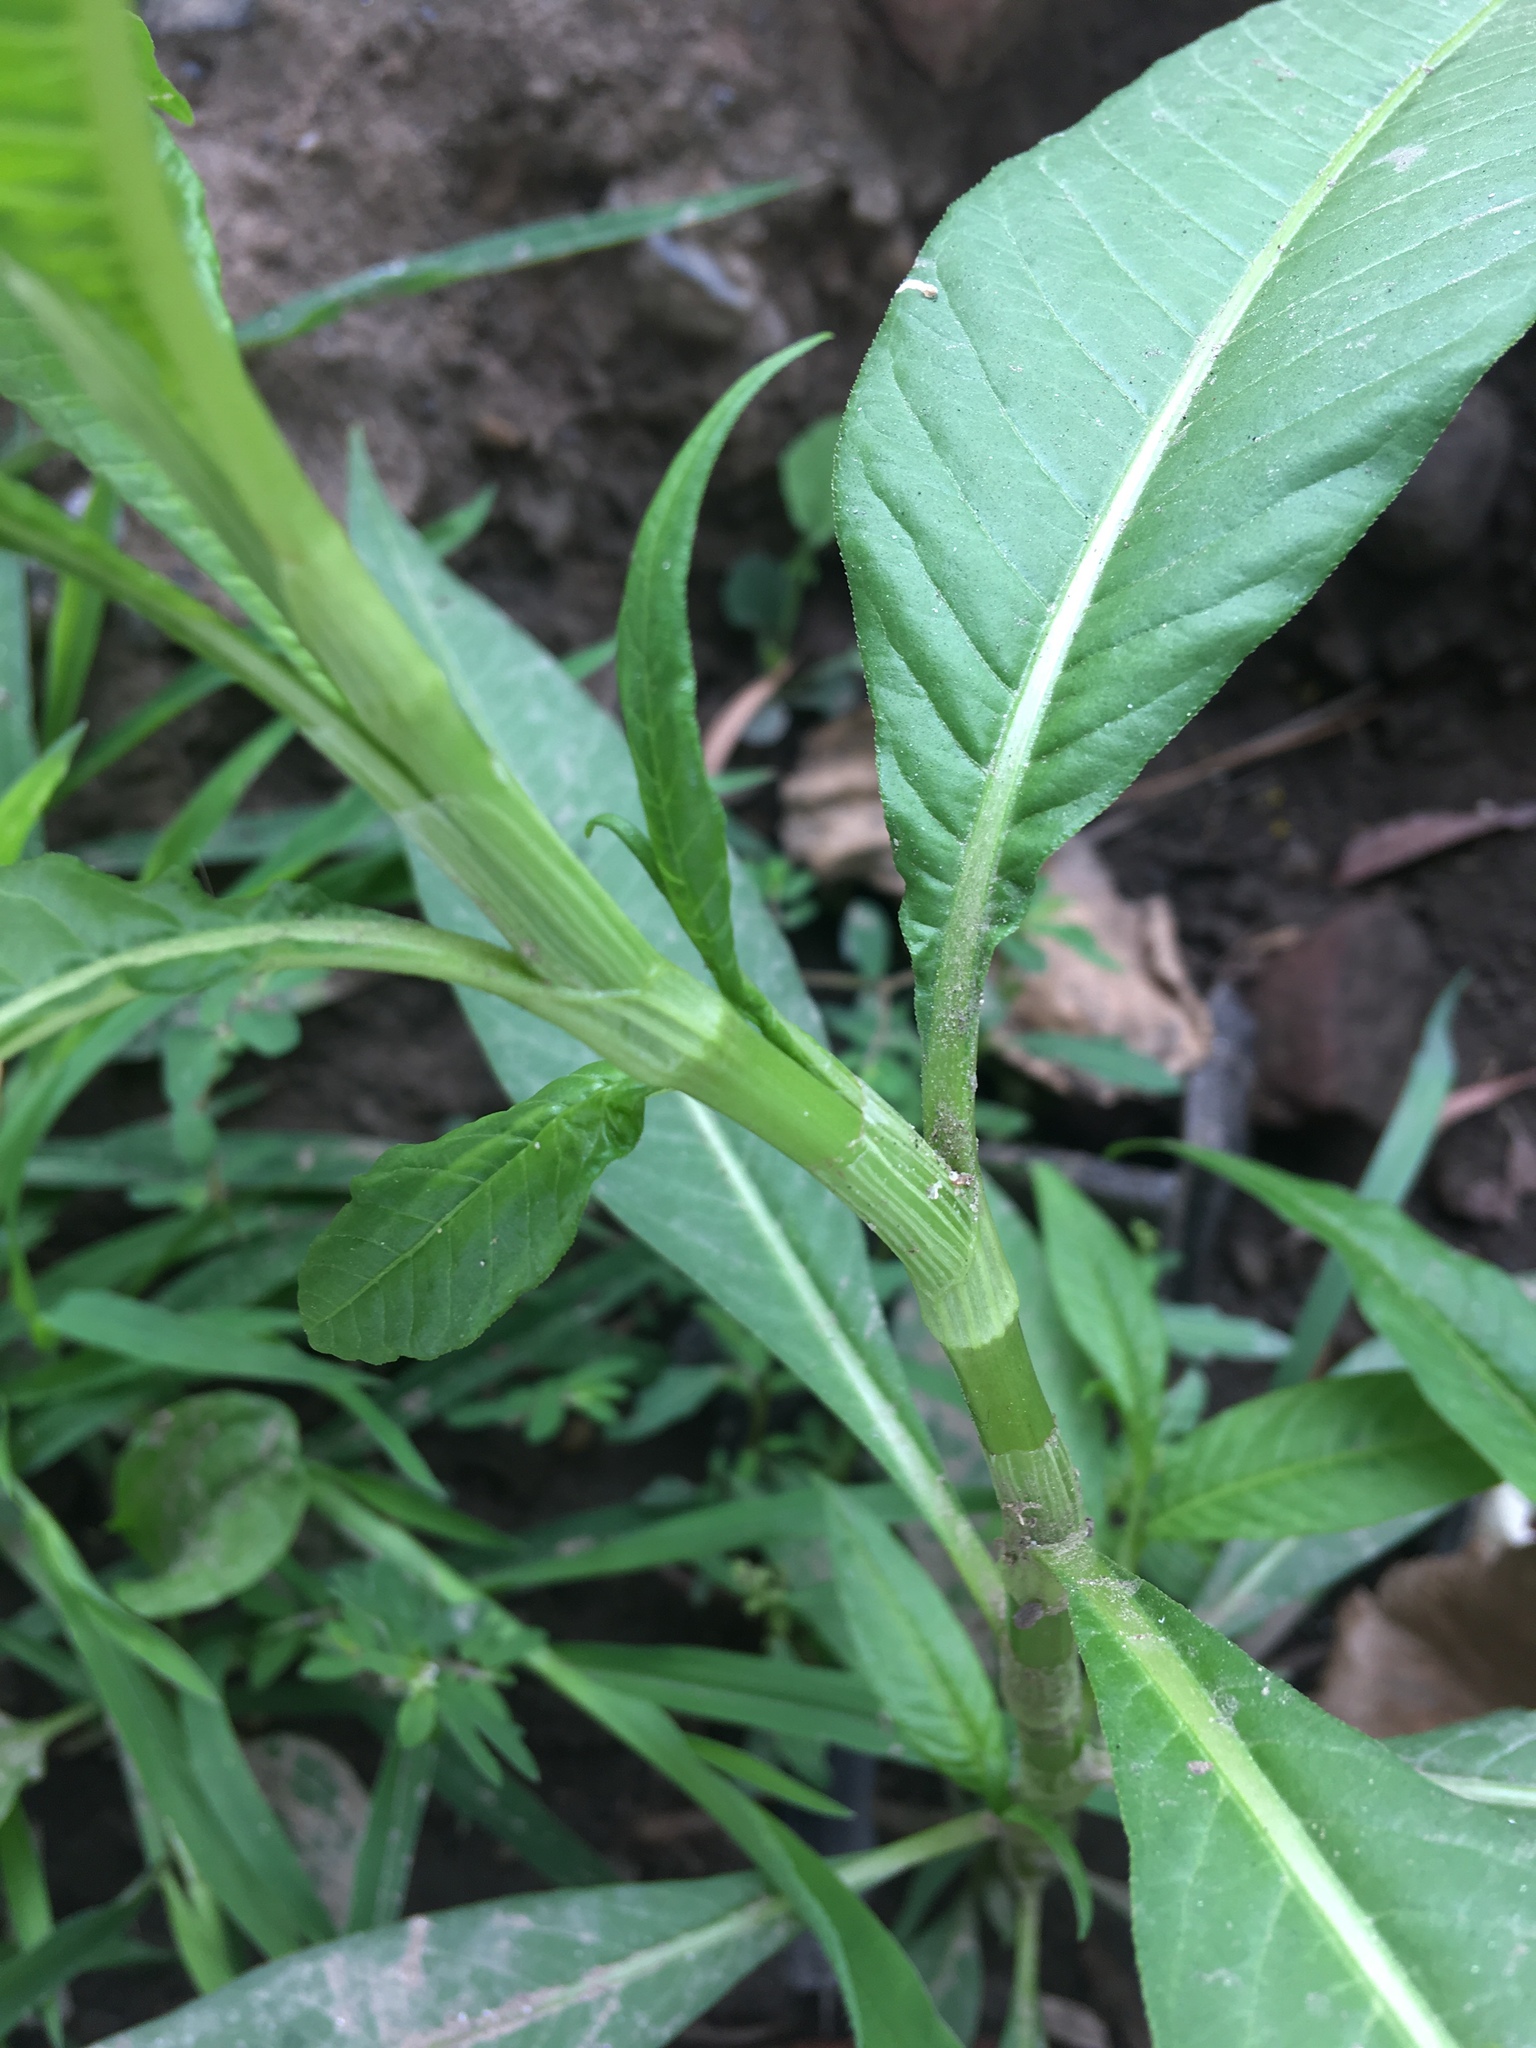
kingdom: Plantae
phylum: Tracheophyta
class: Magnoliopsida
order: Caryophyllales
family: Polygonaceae
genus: Persicaria
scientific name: Persicaria lapathifolia
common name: Curlytop knotweed
